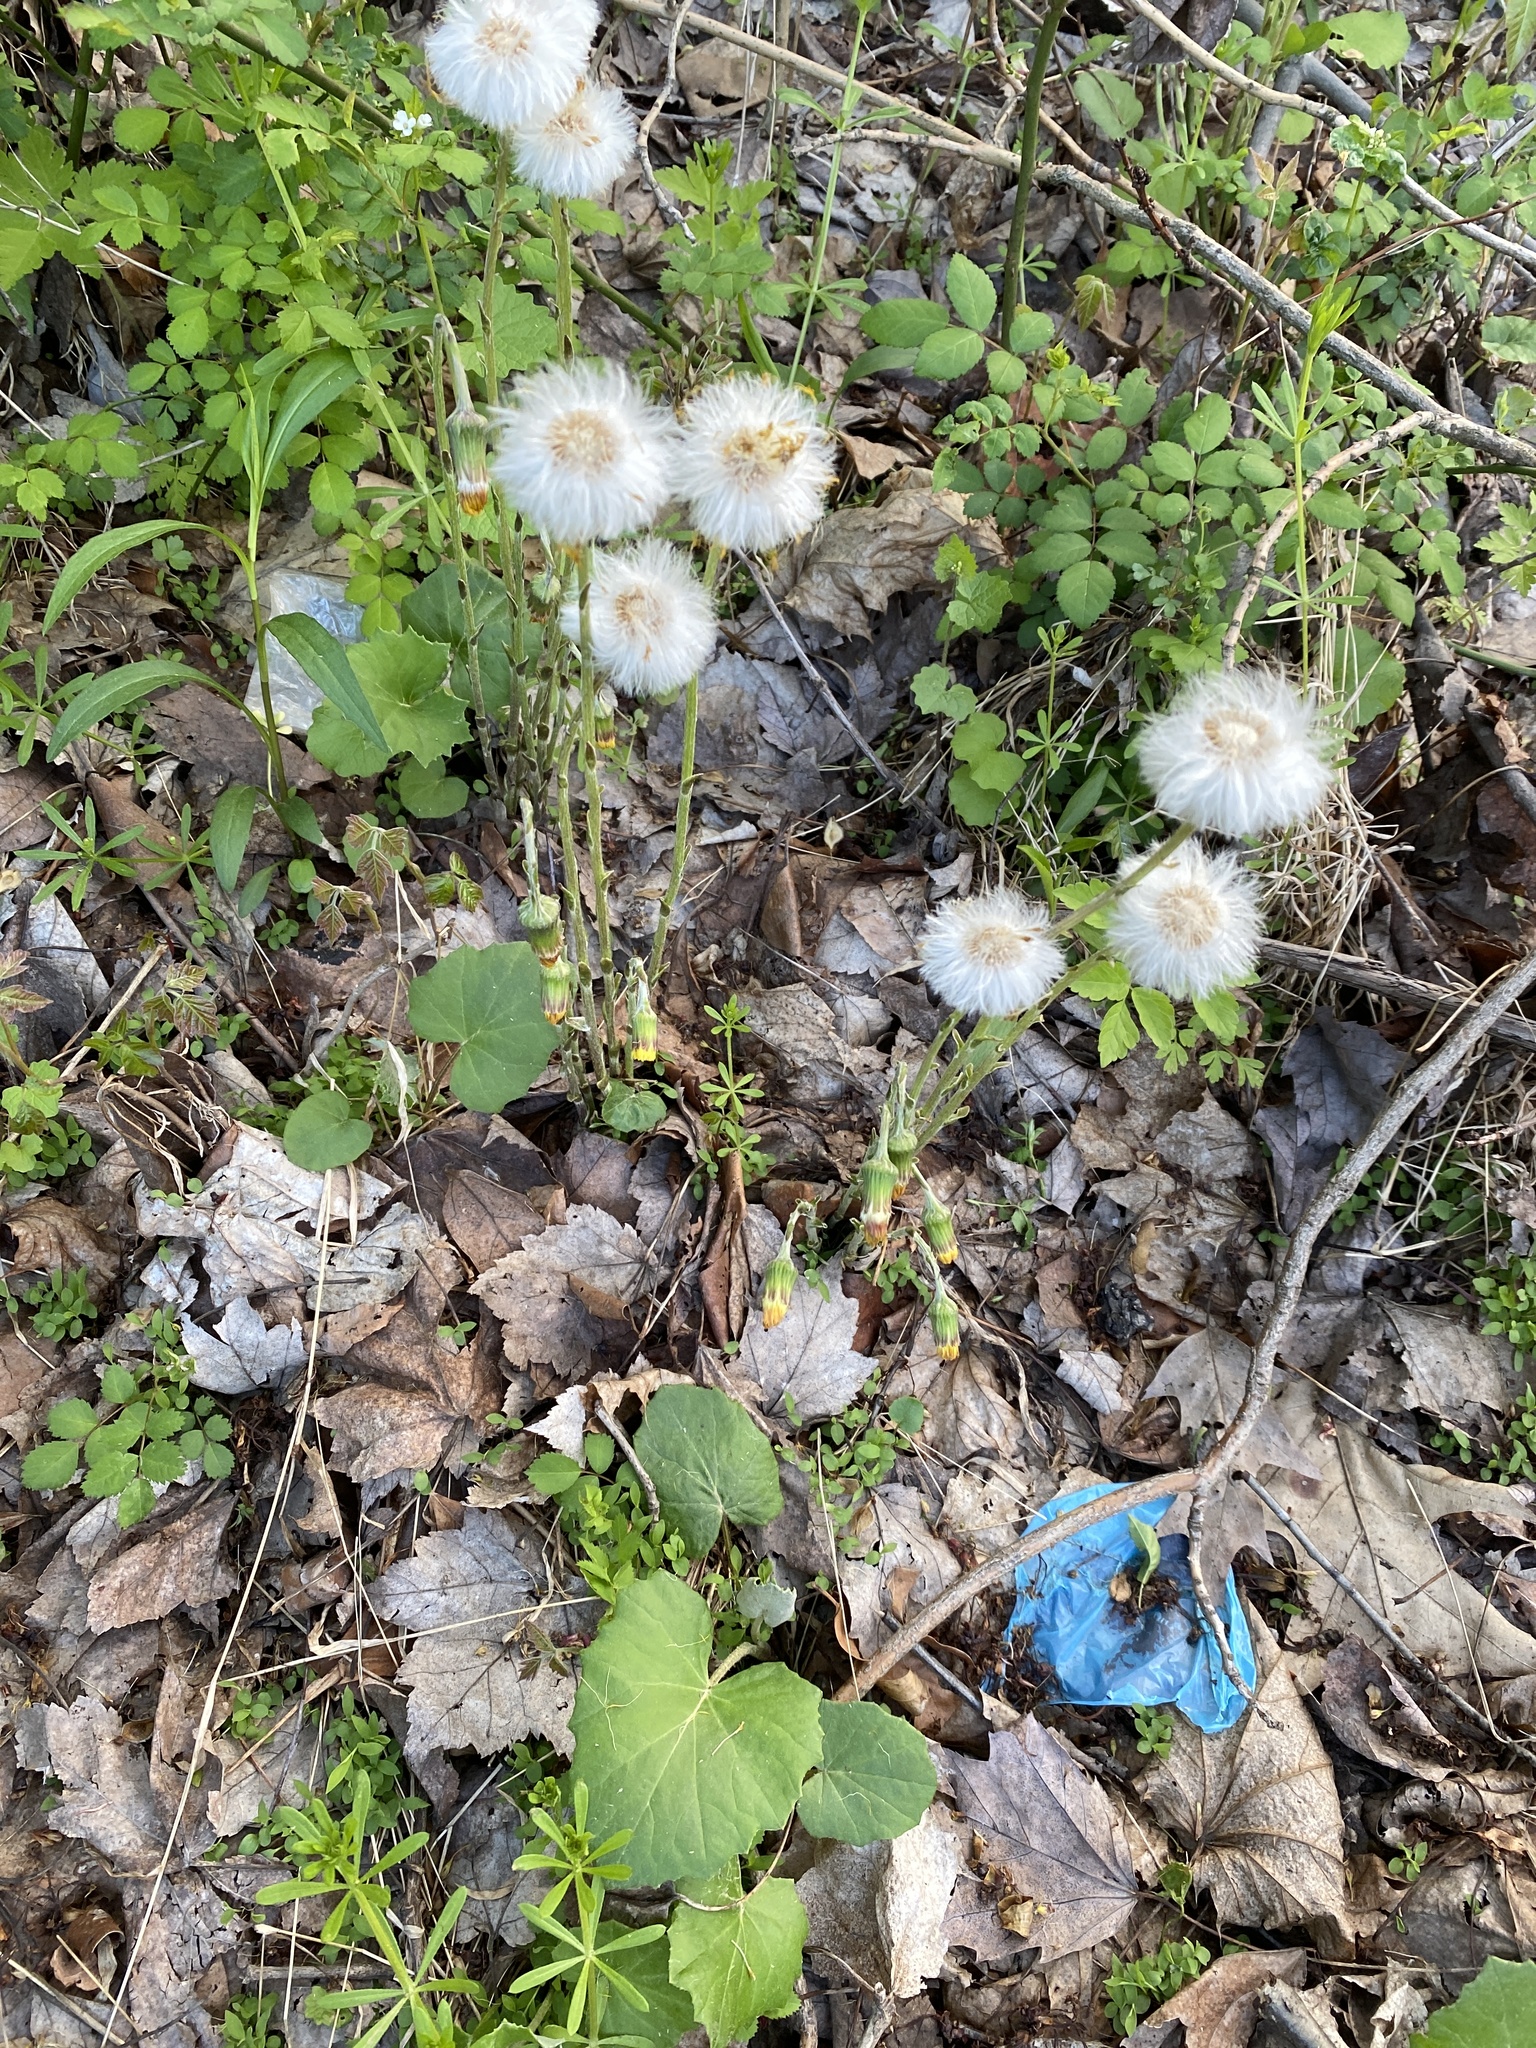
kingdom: Plantae
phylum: Tracheophyta
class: Magnoliopsida
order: Asterales
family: Asteraceae
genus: Tussilago
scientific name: Tussilago farfara
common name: Coltsfoot
